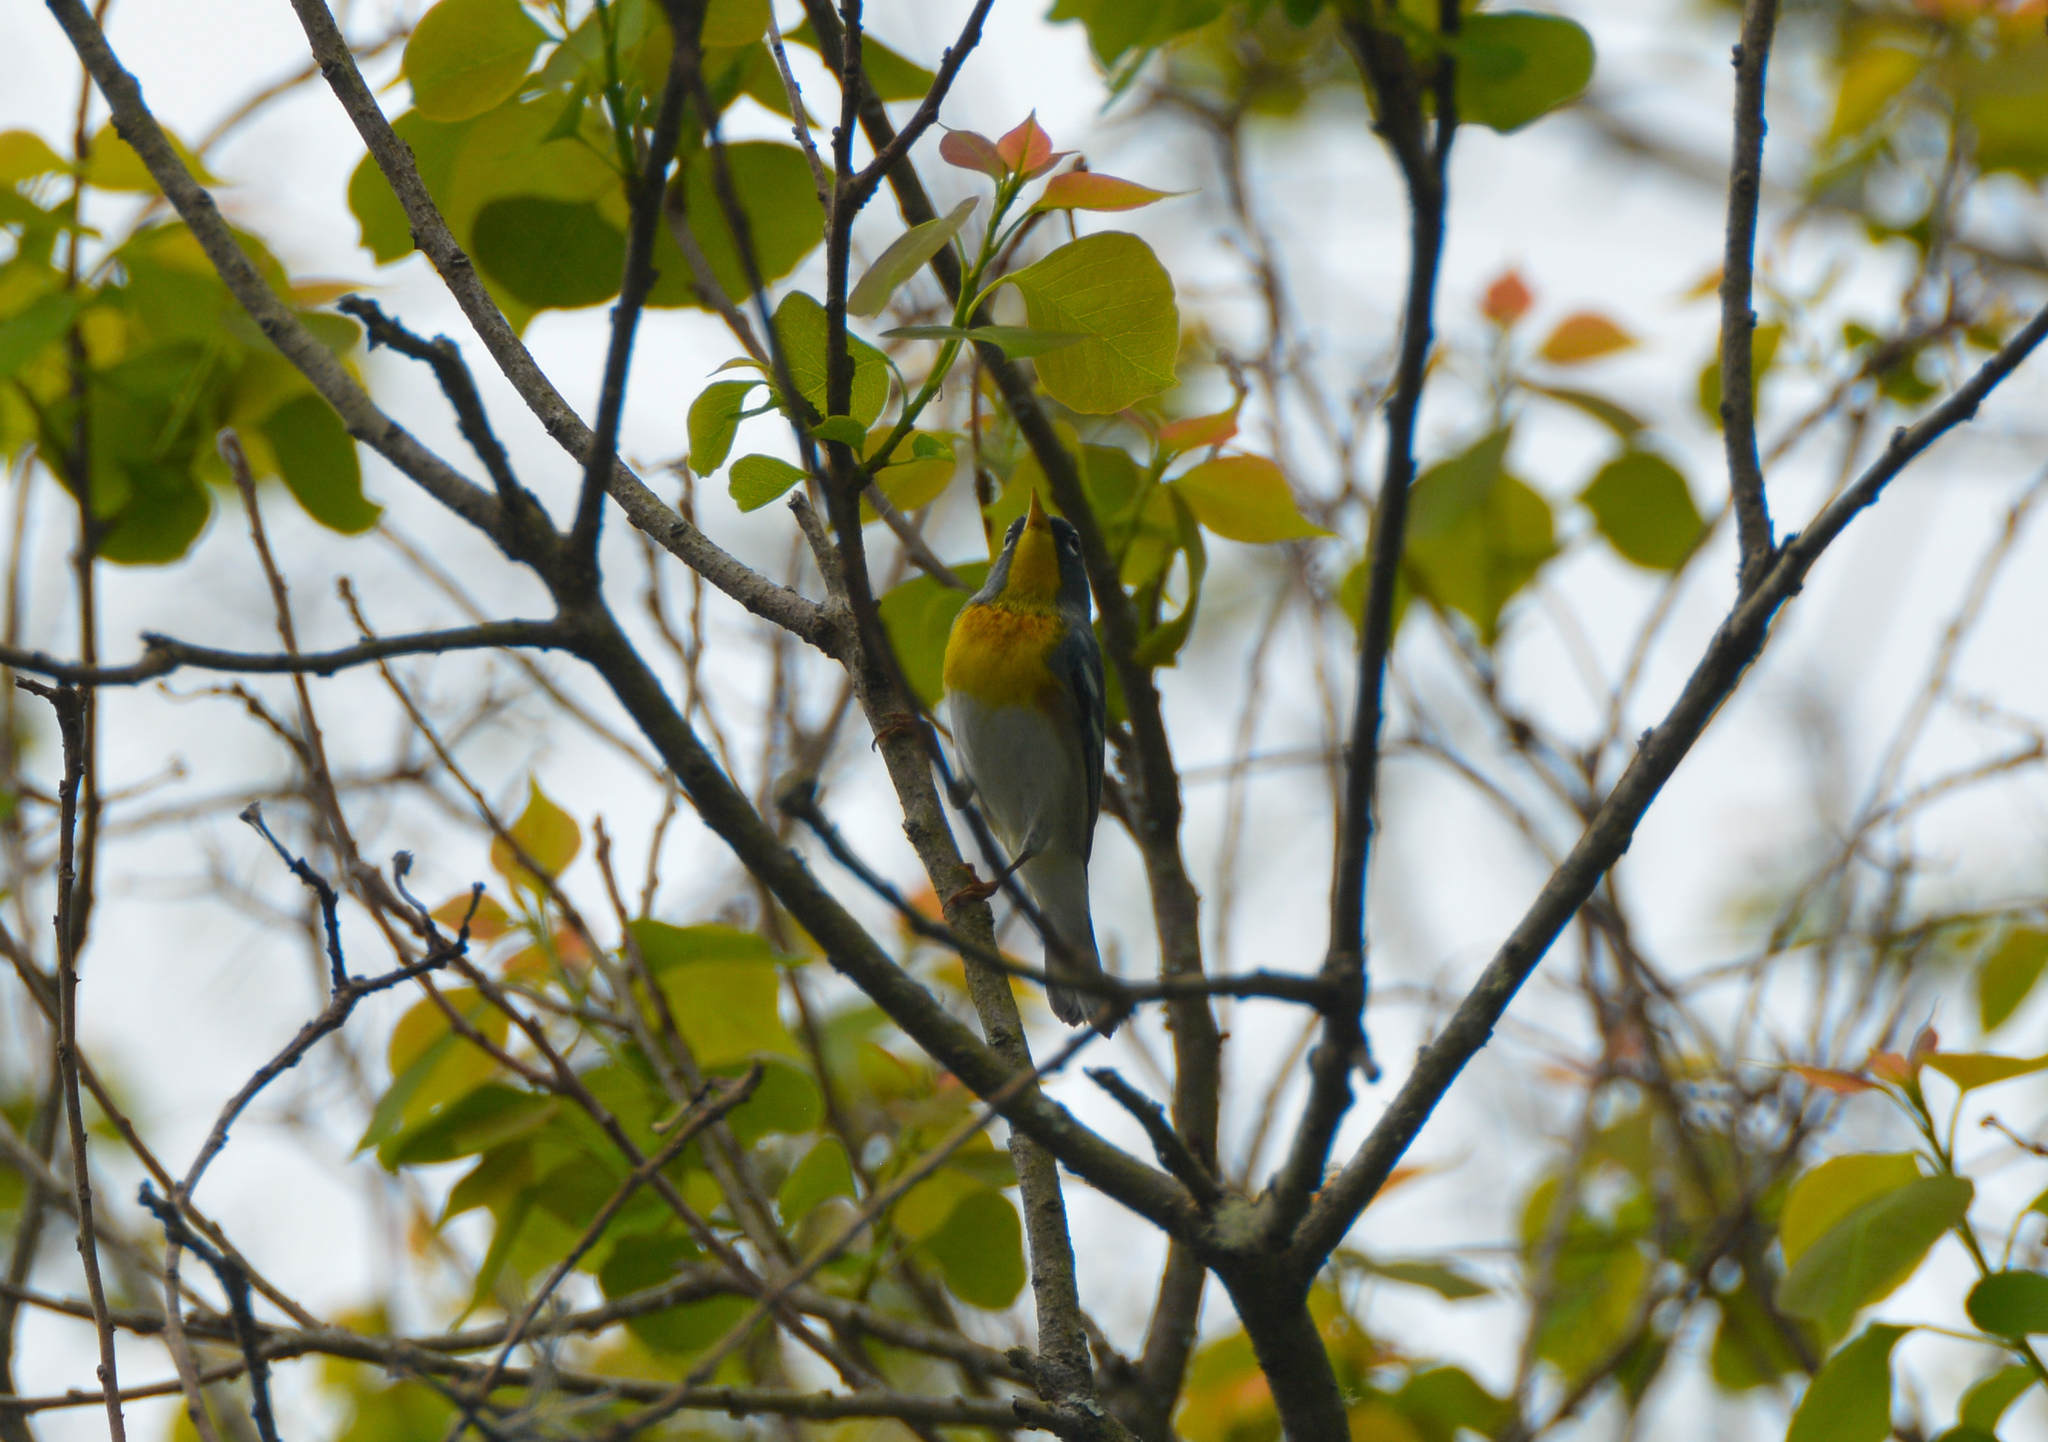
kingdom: Animalia
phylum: Chordata
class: Aves
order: Passeriformes
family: Parulidae
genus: Setophaga
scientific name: Setophaga americana
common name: Northern parula
